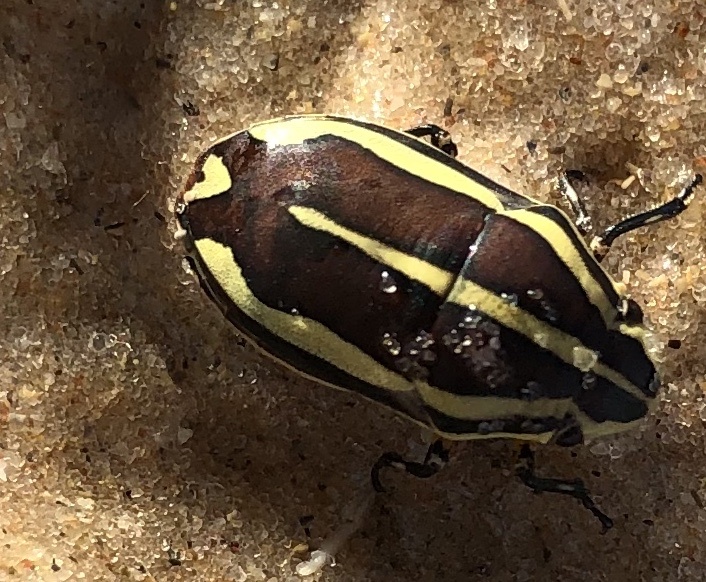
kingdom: Animalia
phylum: Arthropoda
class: Insecta
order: Hemiptera
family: Scutelleridae
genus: Agonosoma
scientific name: Agonosoma flavolineata
